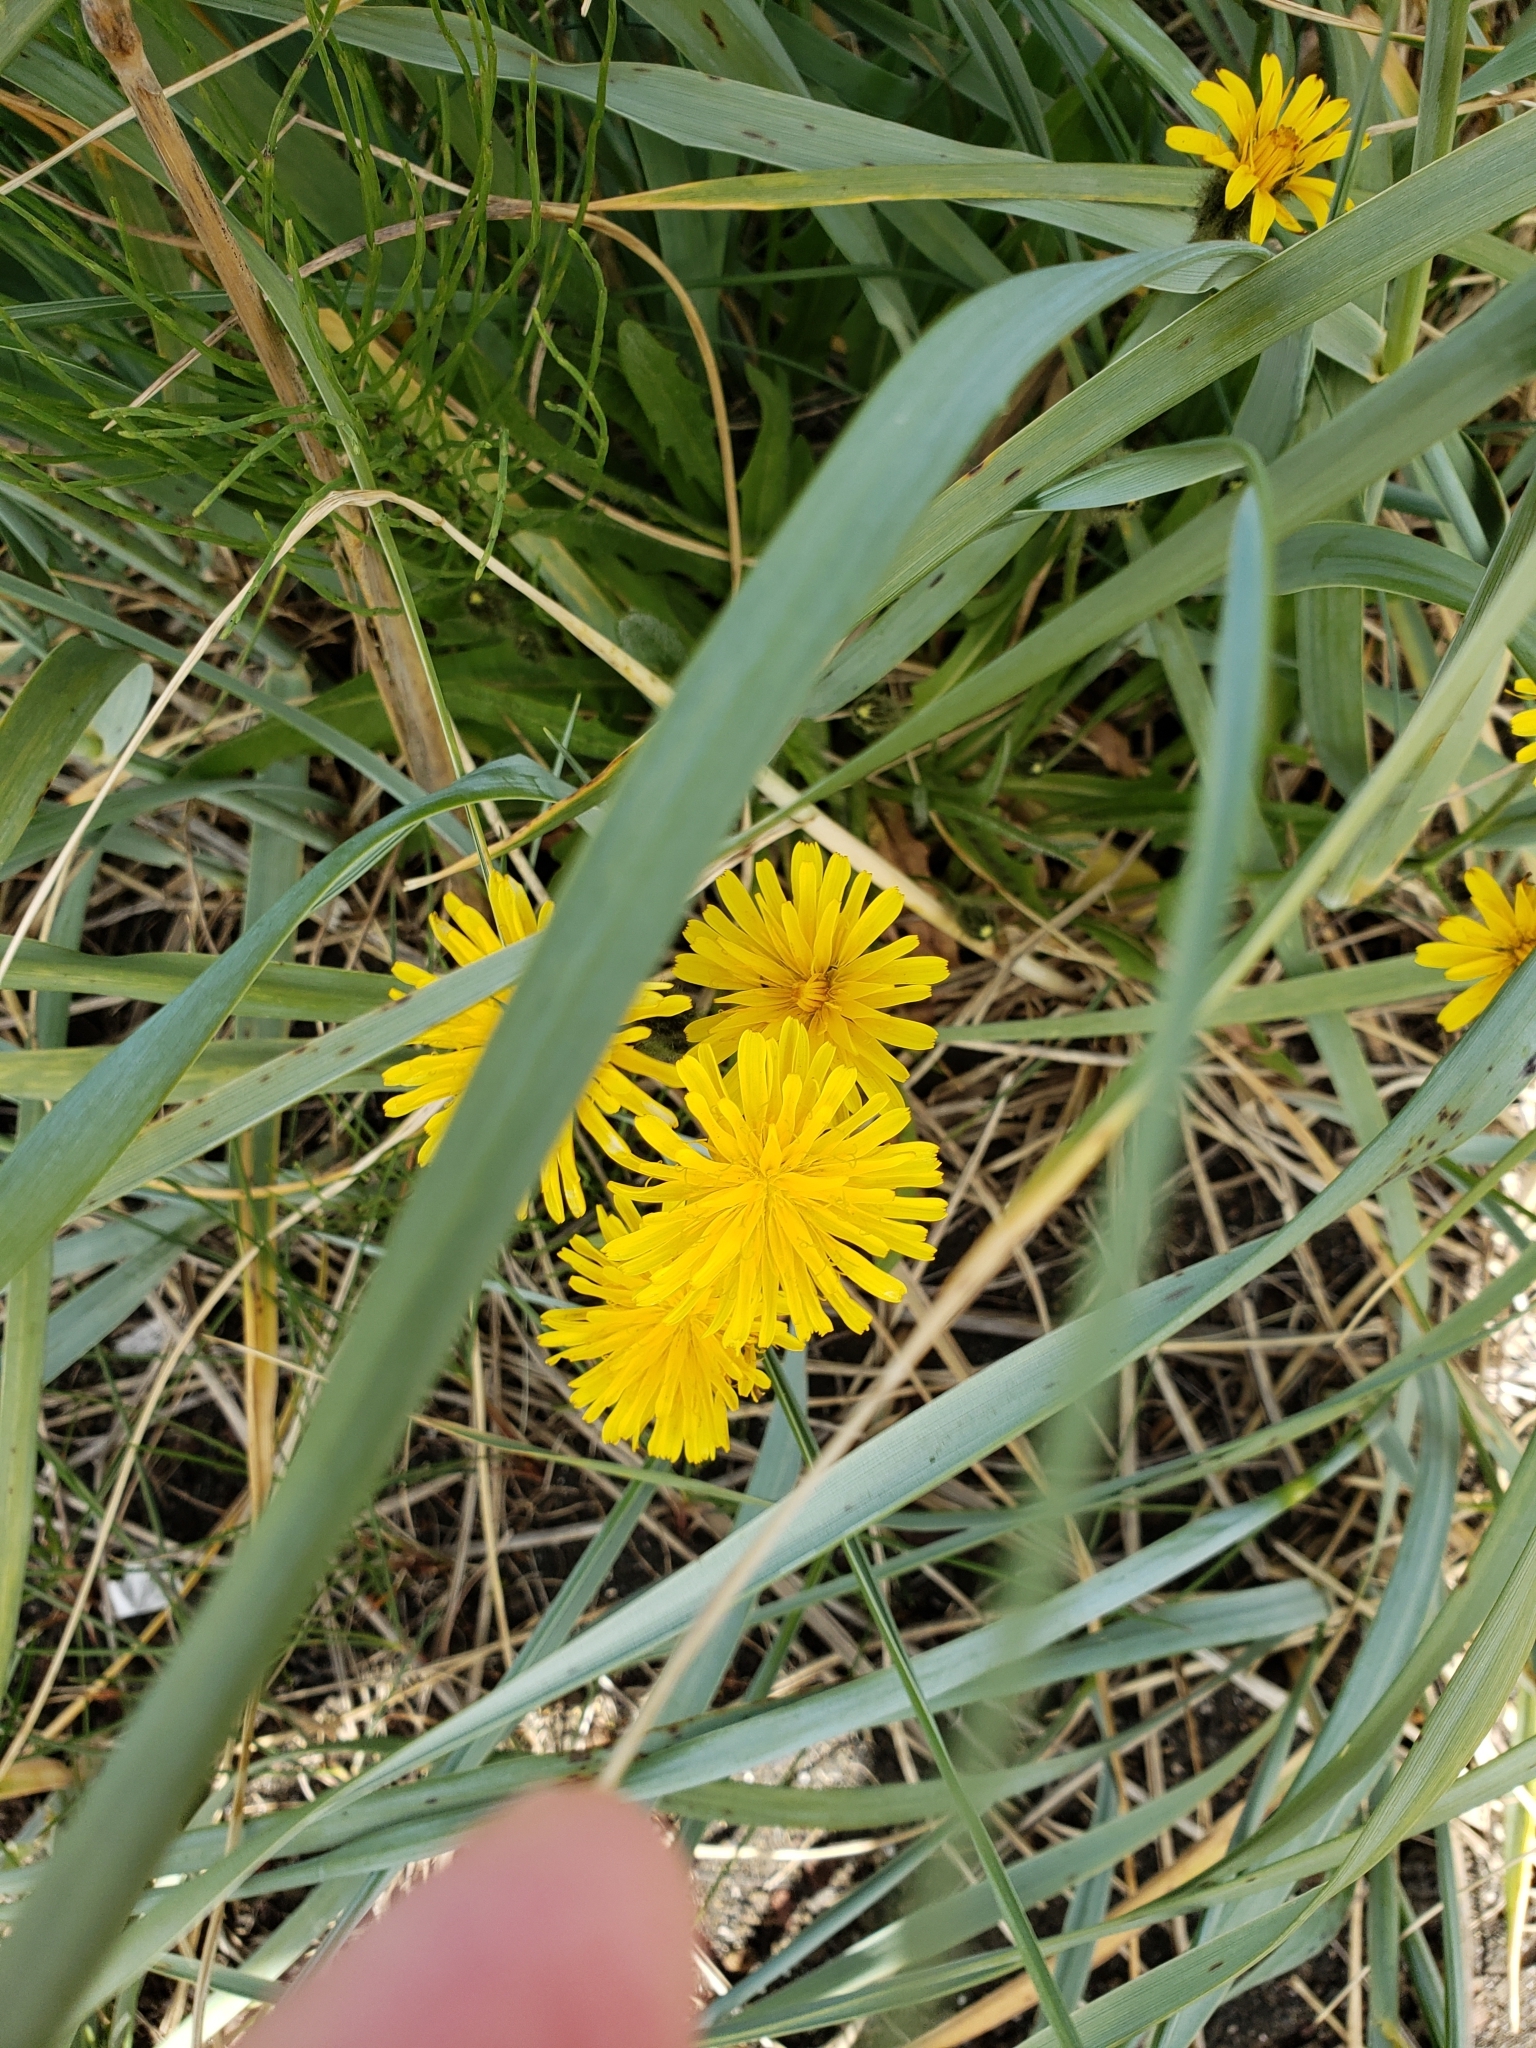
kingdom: Plantae
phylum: Tracheophyta
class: Magnoliopsida
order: Asterales
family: Asteraceae
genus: Taraxacum
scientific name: Taraxacum officinale
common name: Common dandelion
